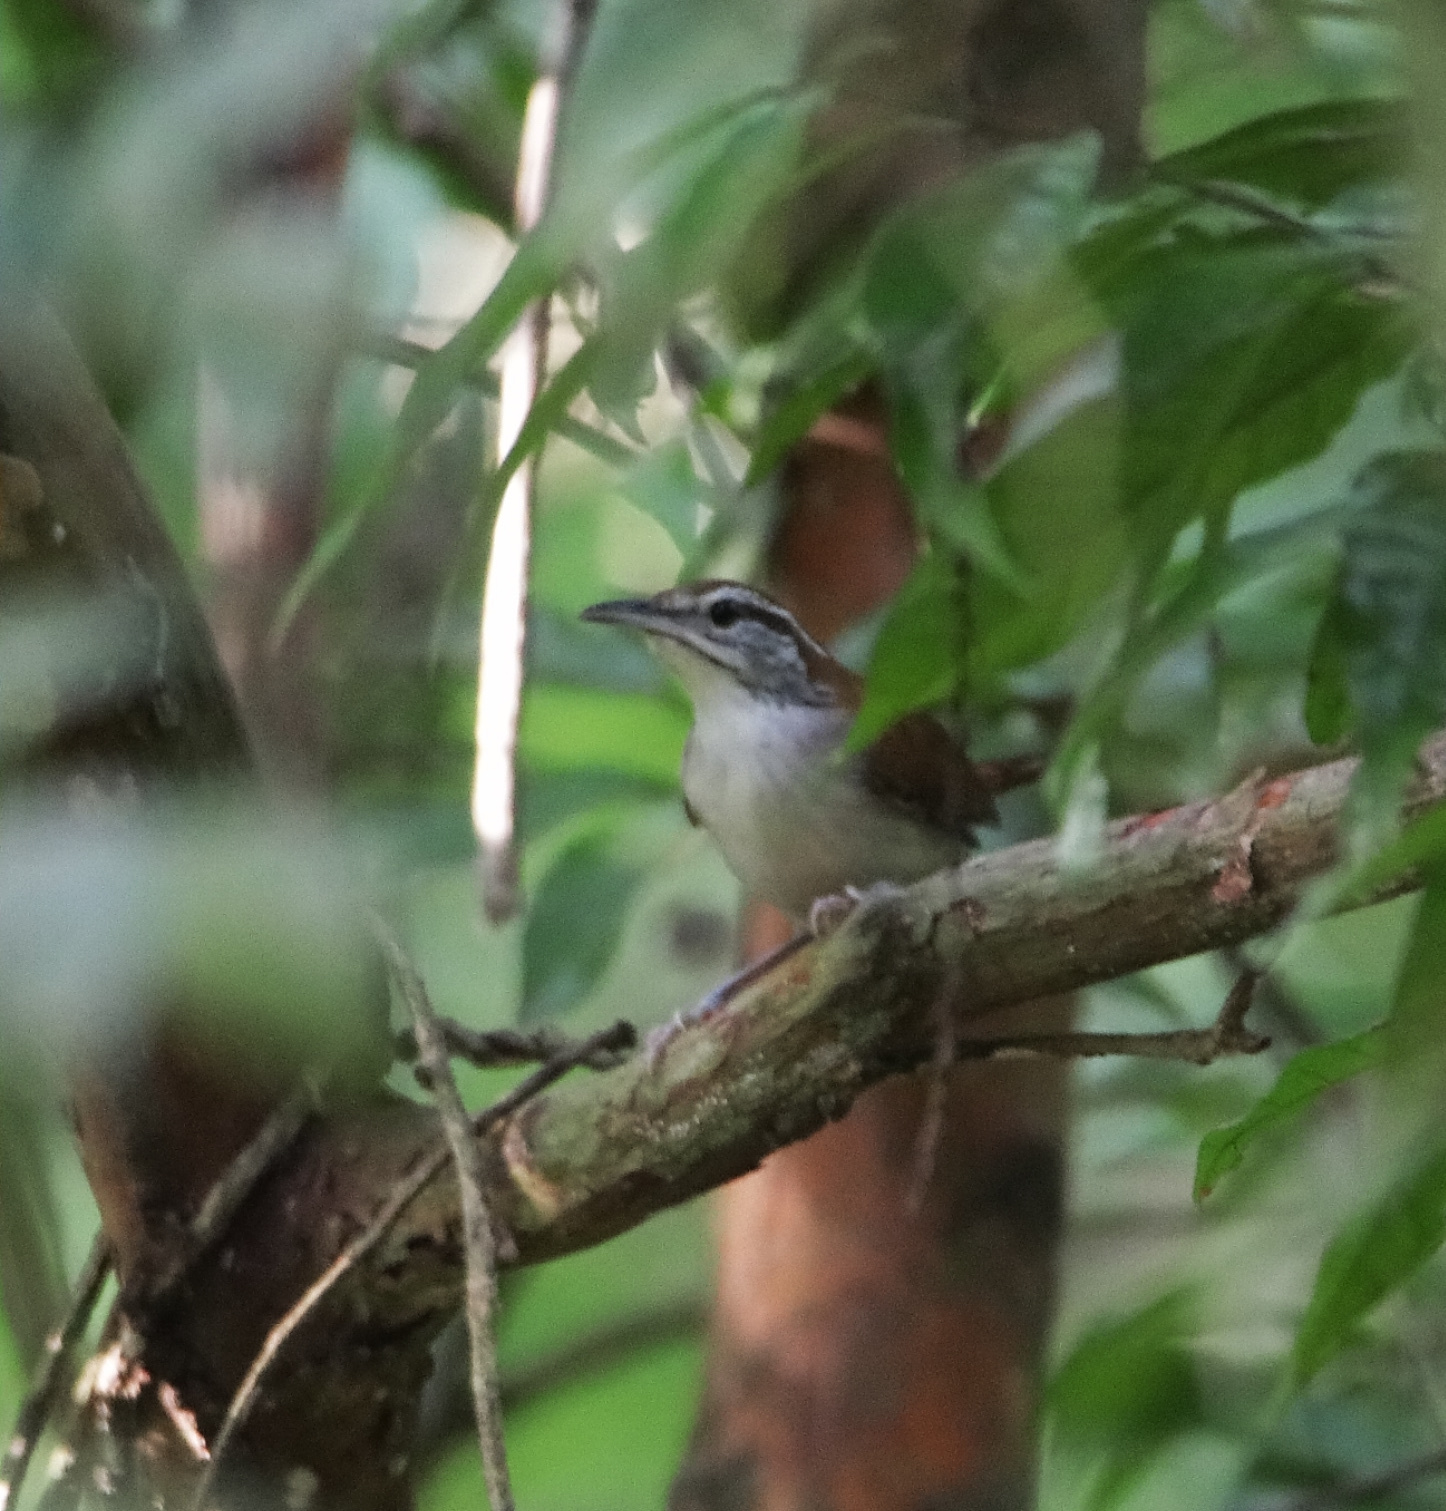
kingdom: Animalia
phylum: Chordata
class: Aves
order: Passeriformes
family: Troglodytidae
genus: Thryophilus
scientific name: Thryophilus rufalbus
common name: Rufous-and-white wren
